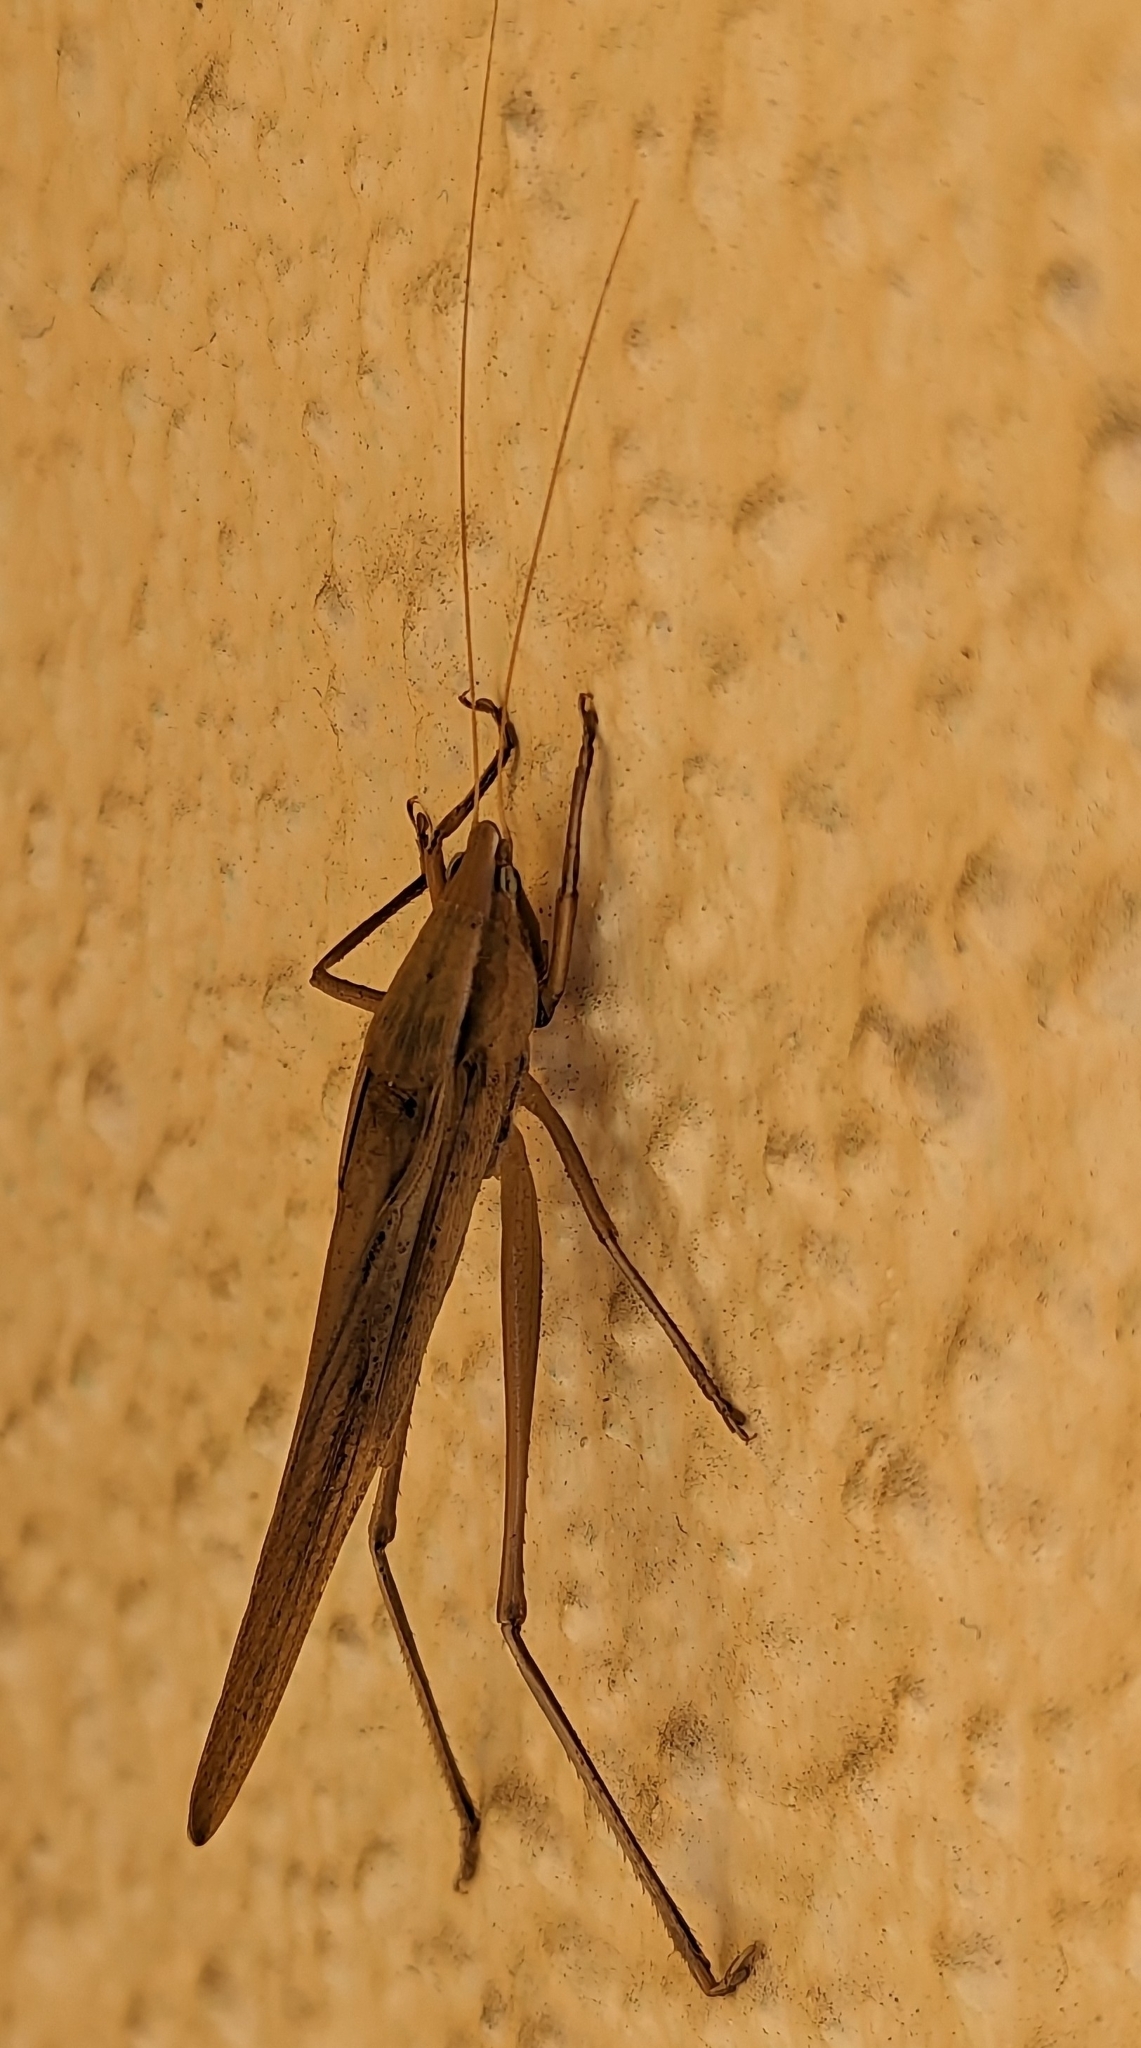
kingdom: Animalia
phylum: Arthropoda
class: Insecta
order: Orthoptera
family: Tettigoniidae
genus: Neoconocephalus
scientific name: Neoconocephalus triops
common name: Broad-tipped conehead
